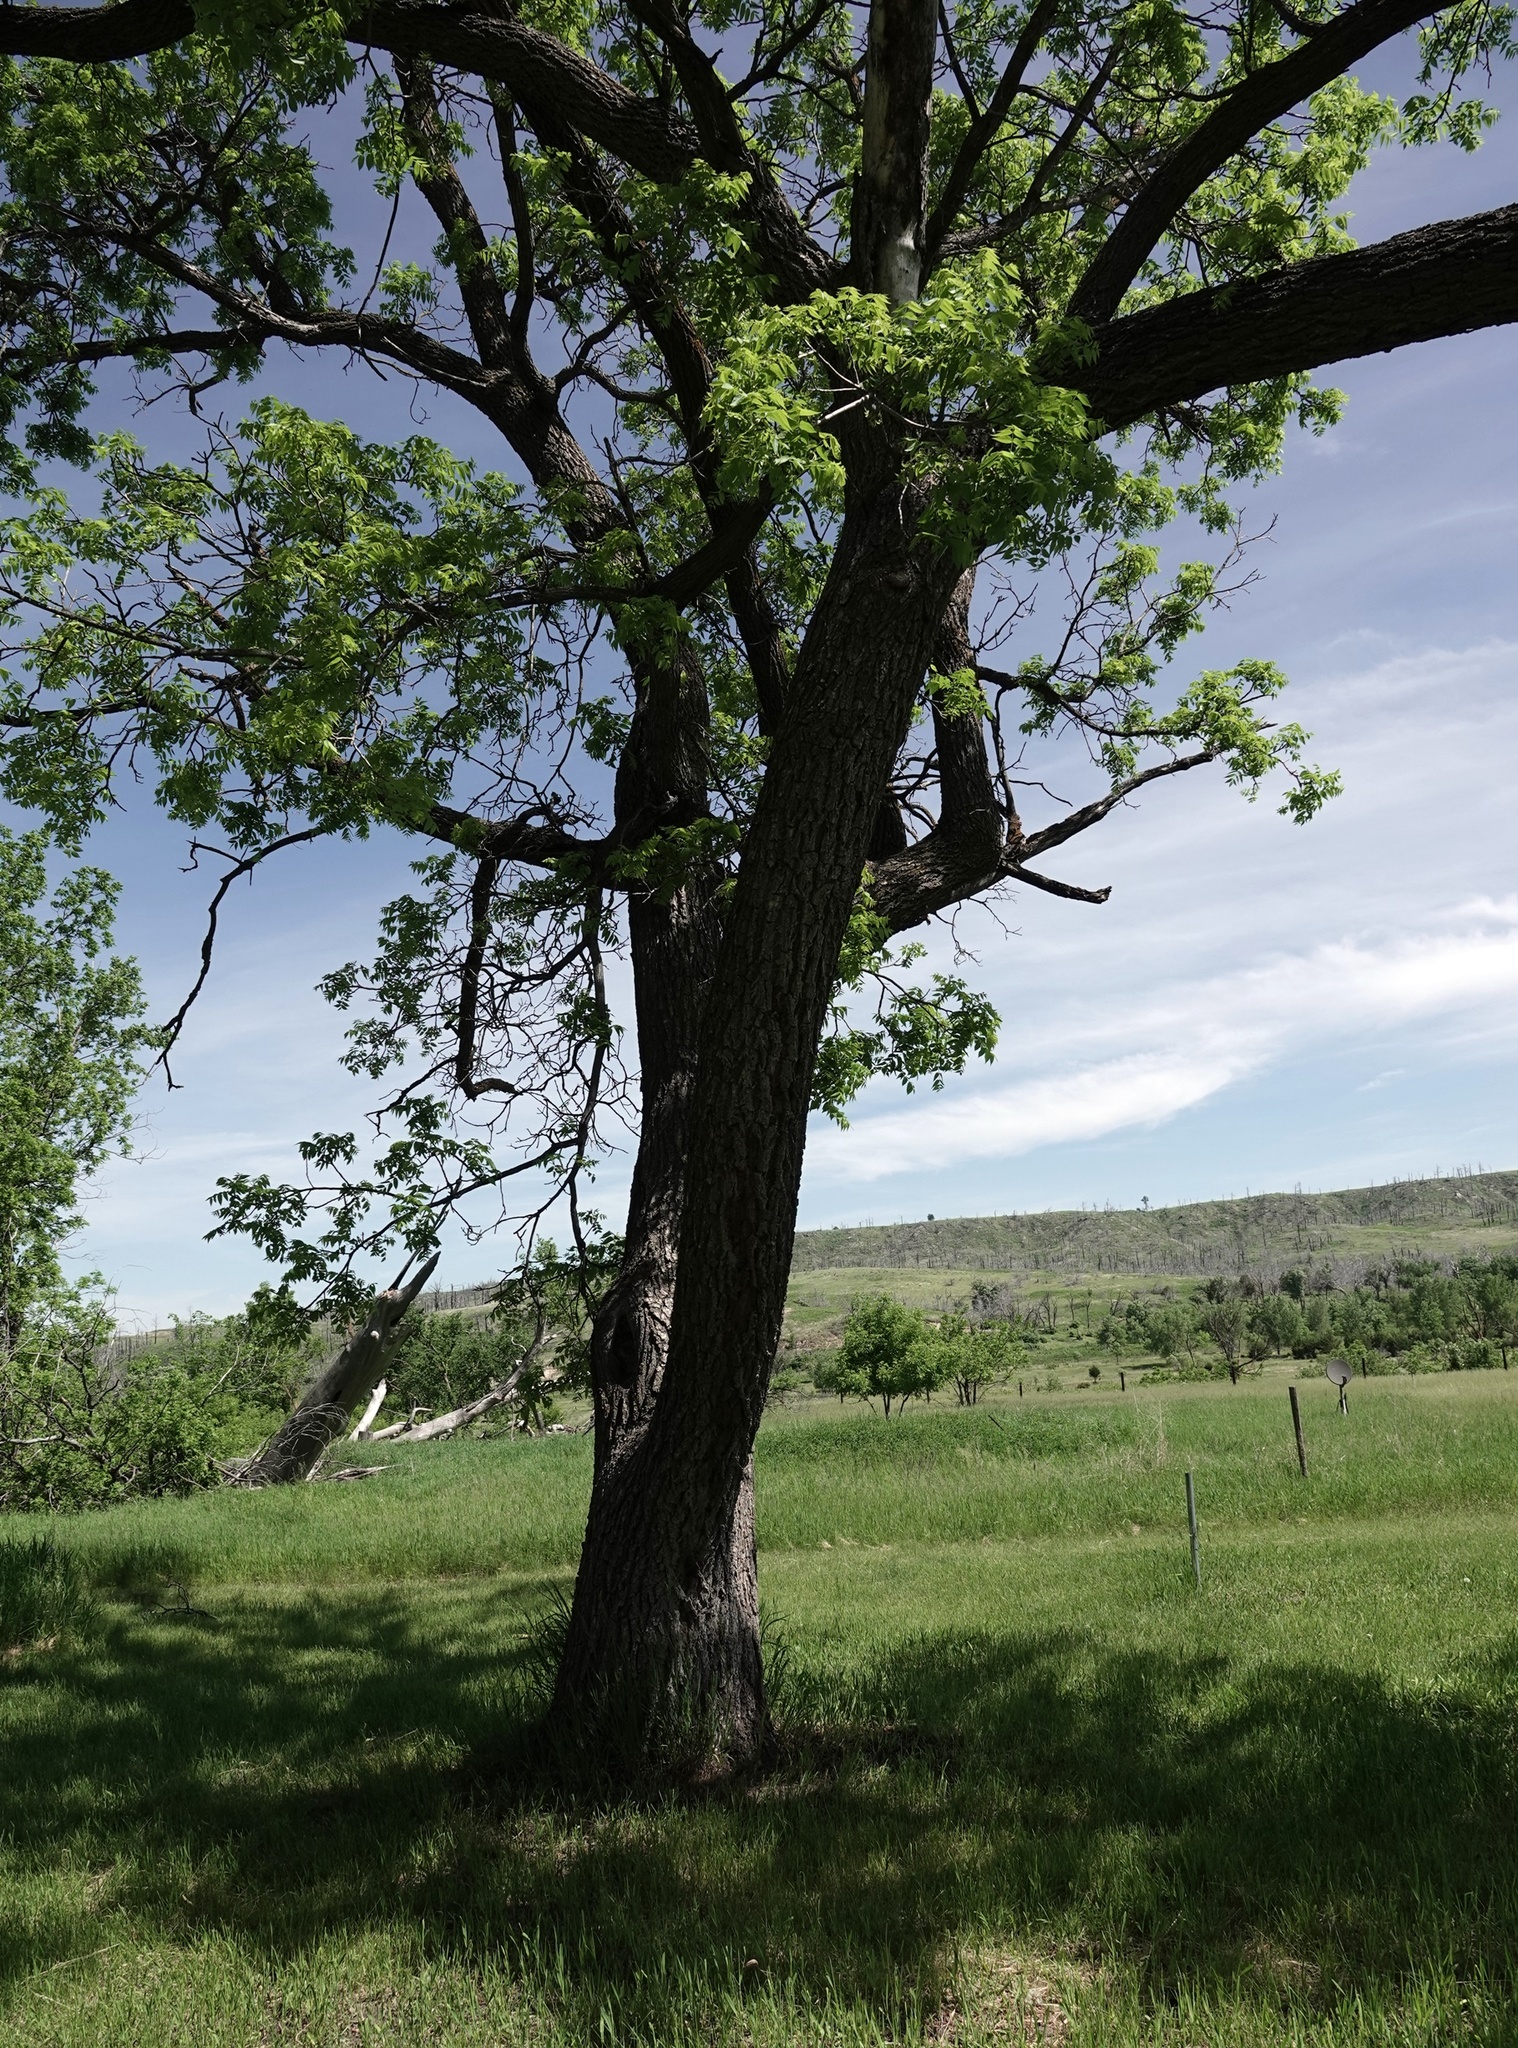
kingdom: Plantae
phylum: Tracheophyta
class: Magnoliopsida
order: Lamiales
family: Oleaceae
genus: Fraxinus
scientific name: Fraxinus pennsylvanica
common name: Green ash
